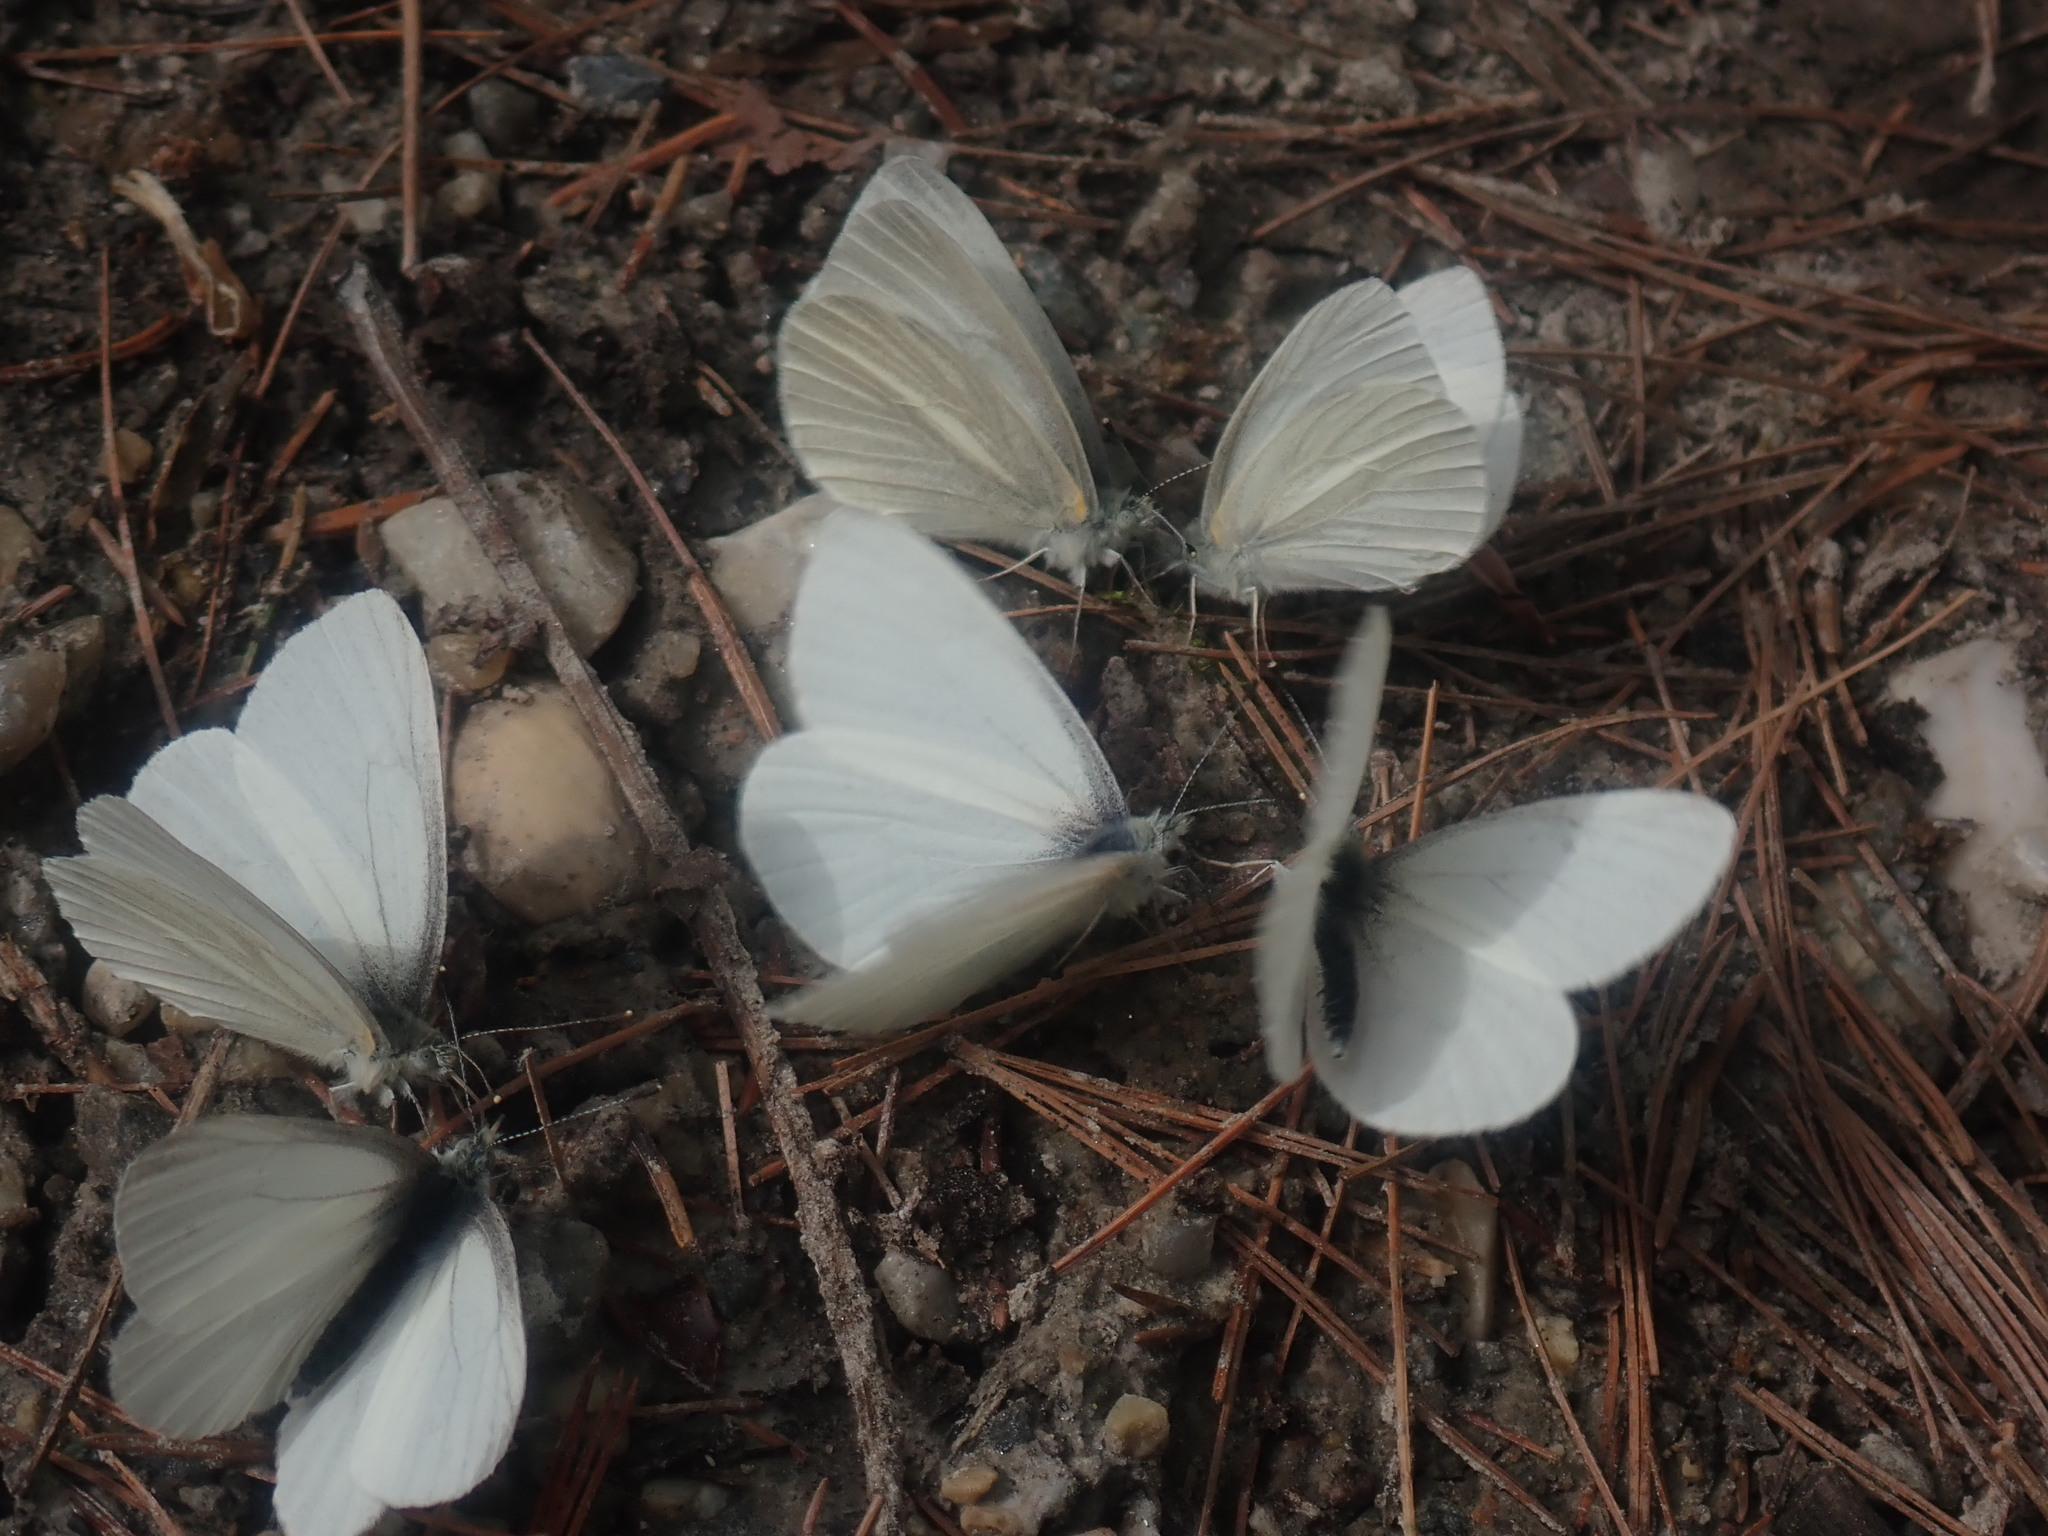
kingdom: Animalia
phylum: Arthropoda
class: Insecta
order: Lepidoptera
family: Pieridae
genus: Pieris
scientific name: Pieris virginiensis
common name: West virginia white
